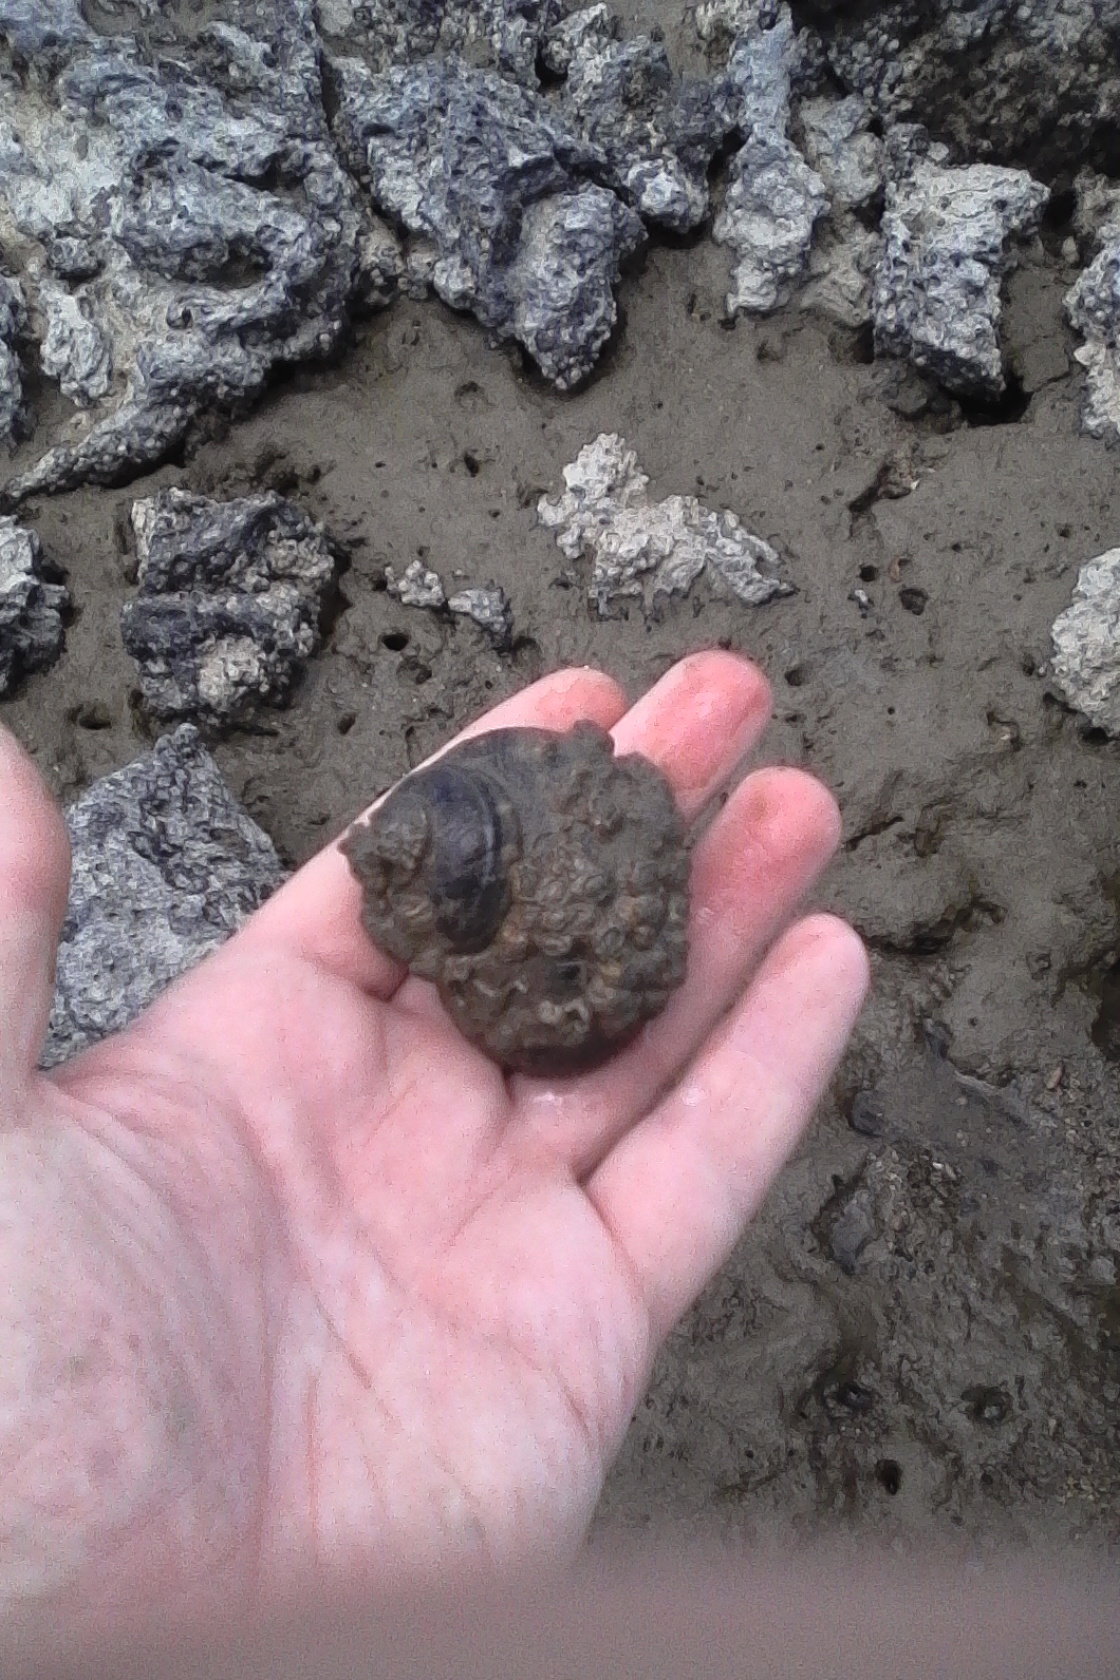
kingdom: Animalia
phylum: Mollusca
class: Gastropoda
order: Trochida
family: Turbinidae
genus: Lunella
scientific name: Lunella smaragda
